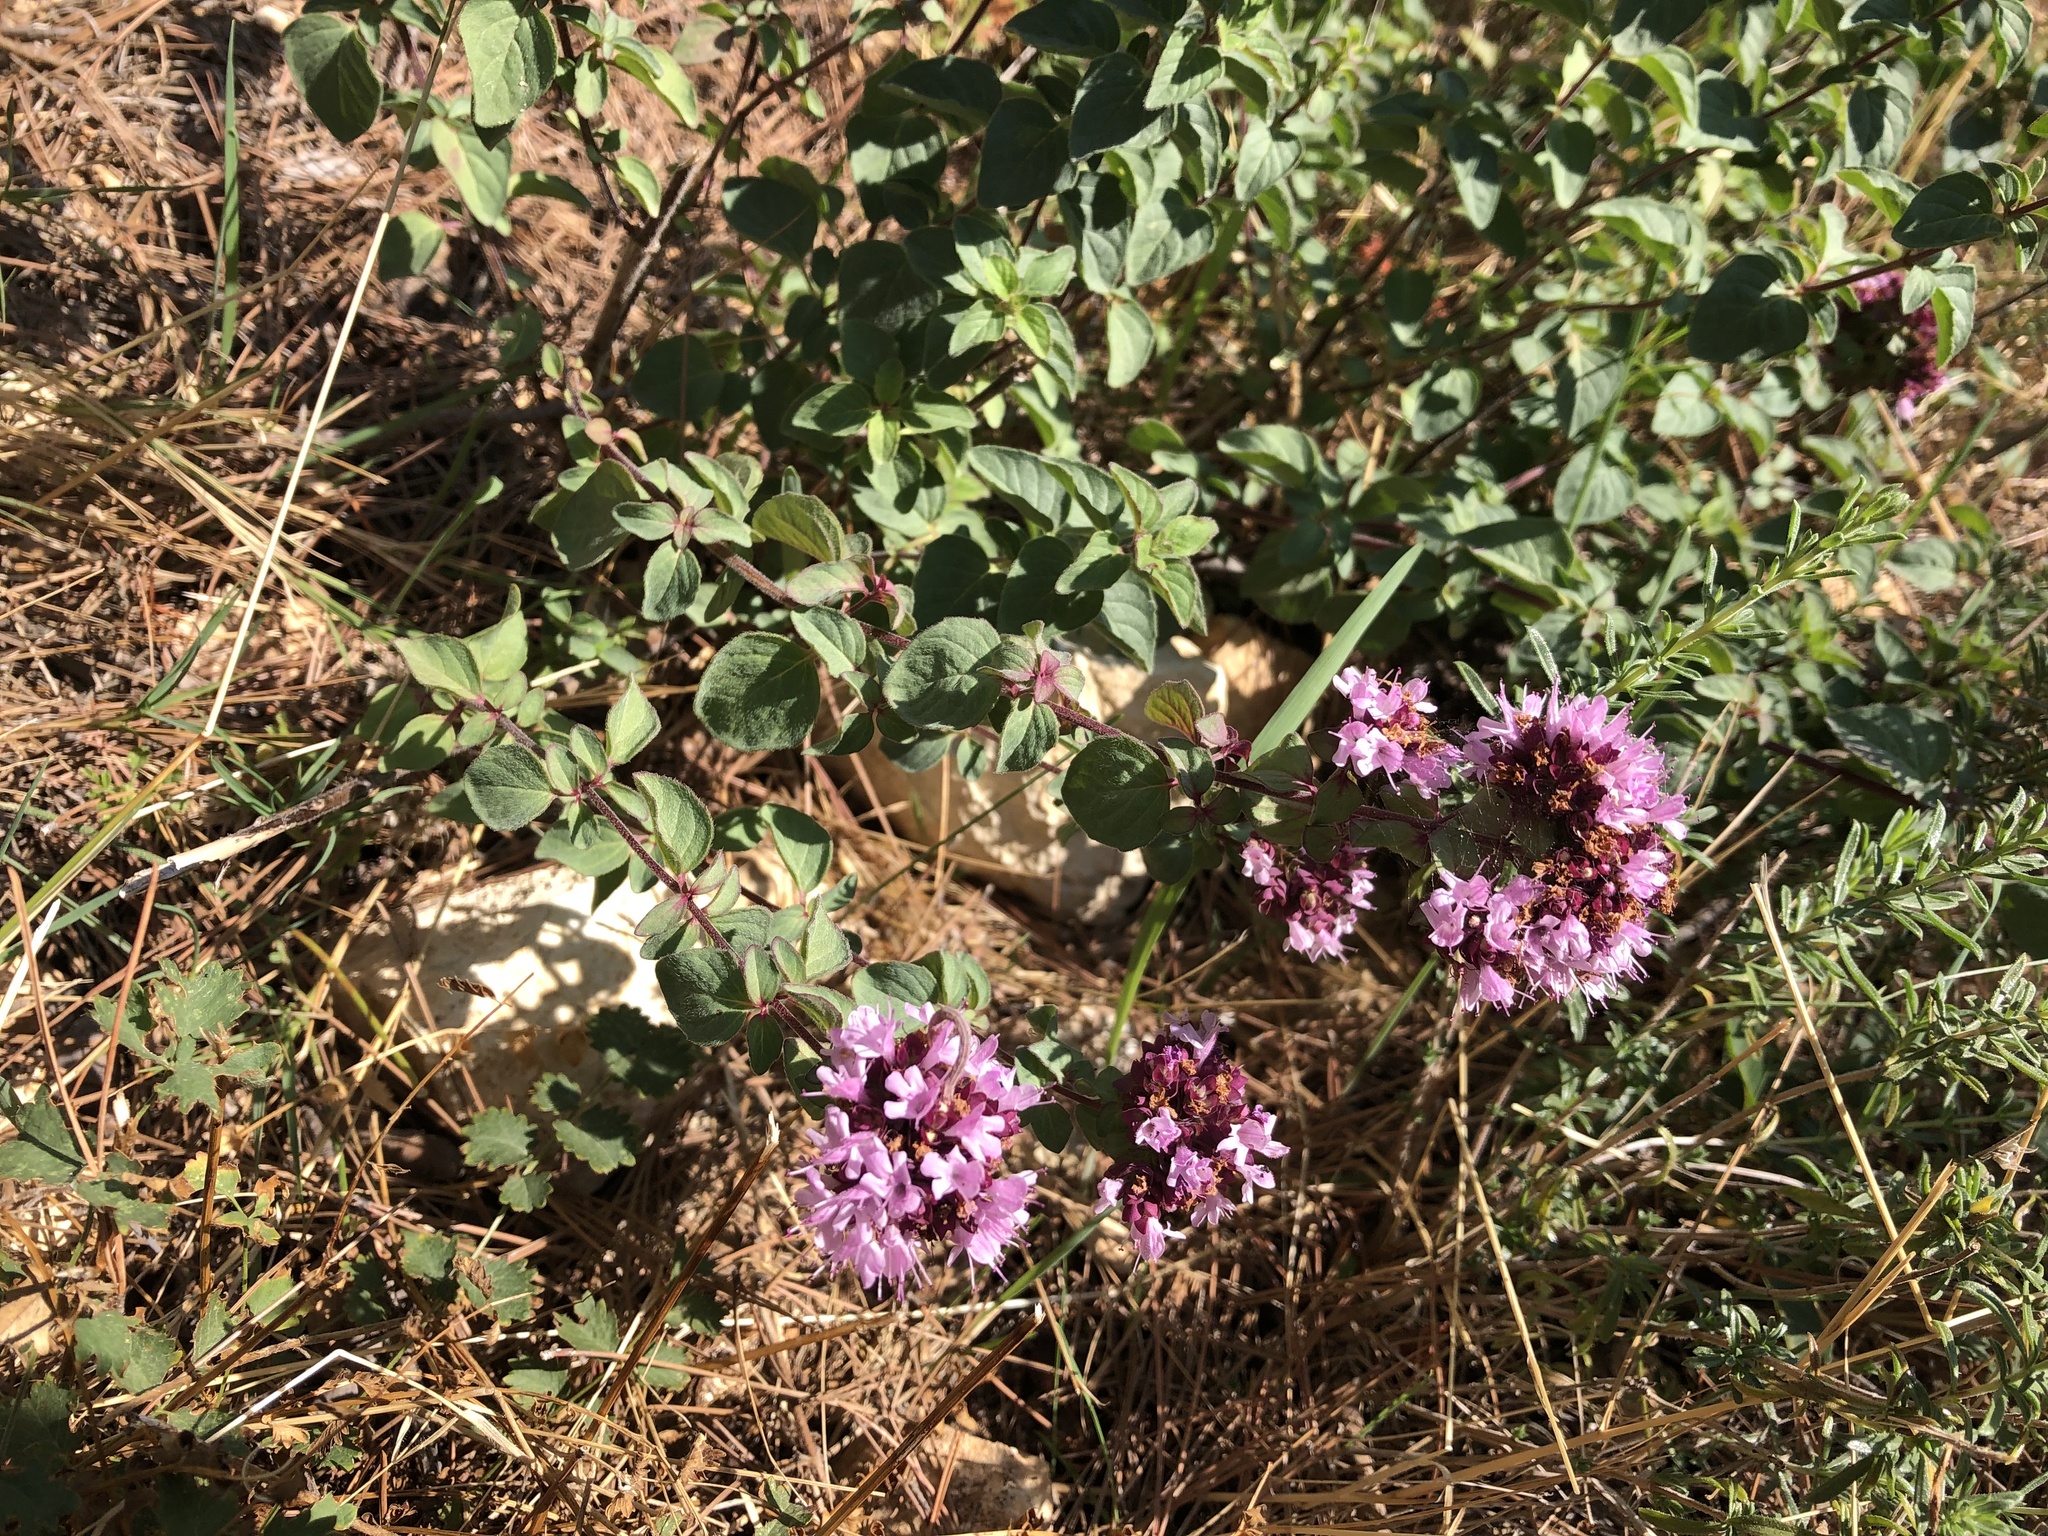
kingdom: Plantae
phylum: Tracheophyta
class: Magnoliopsida
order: Lamiales
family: Lamiaceae
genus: Origanum
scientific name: Origanum vulgare
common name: Wild marjoram
